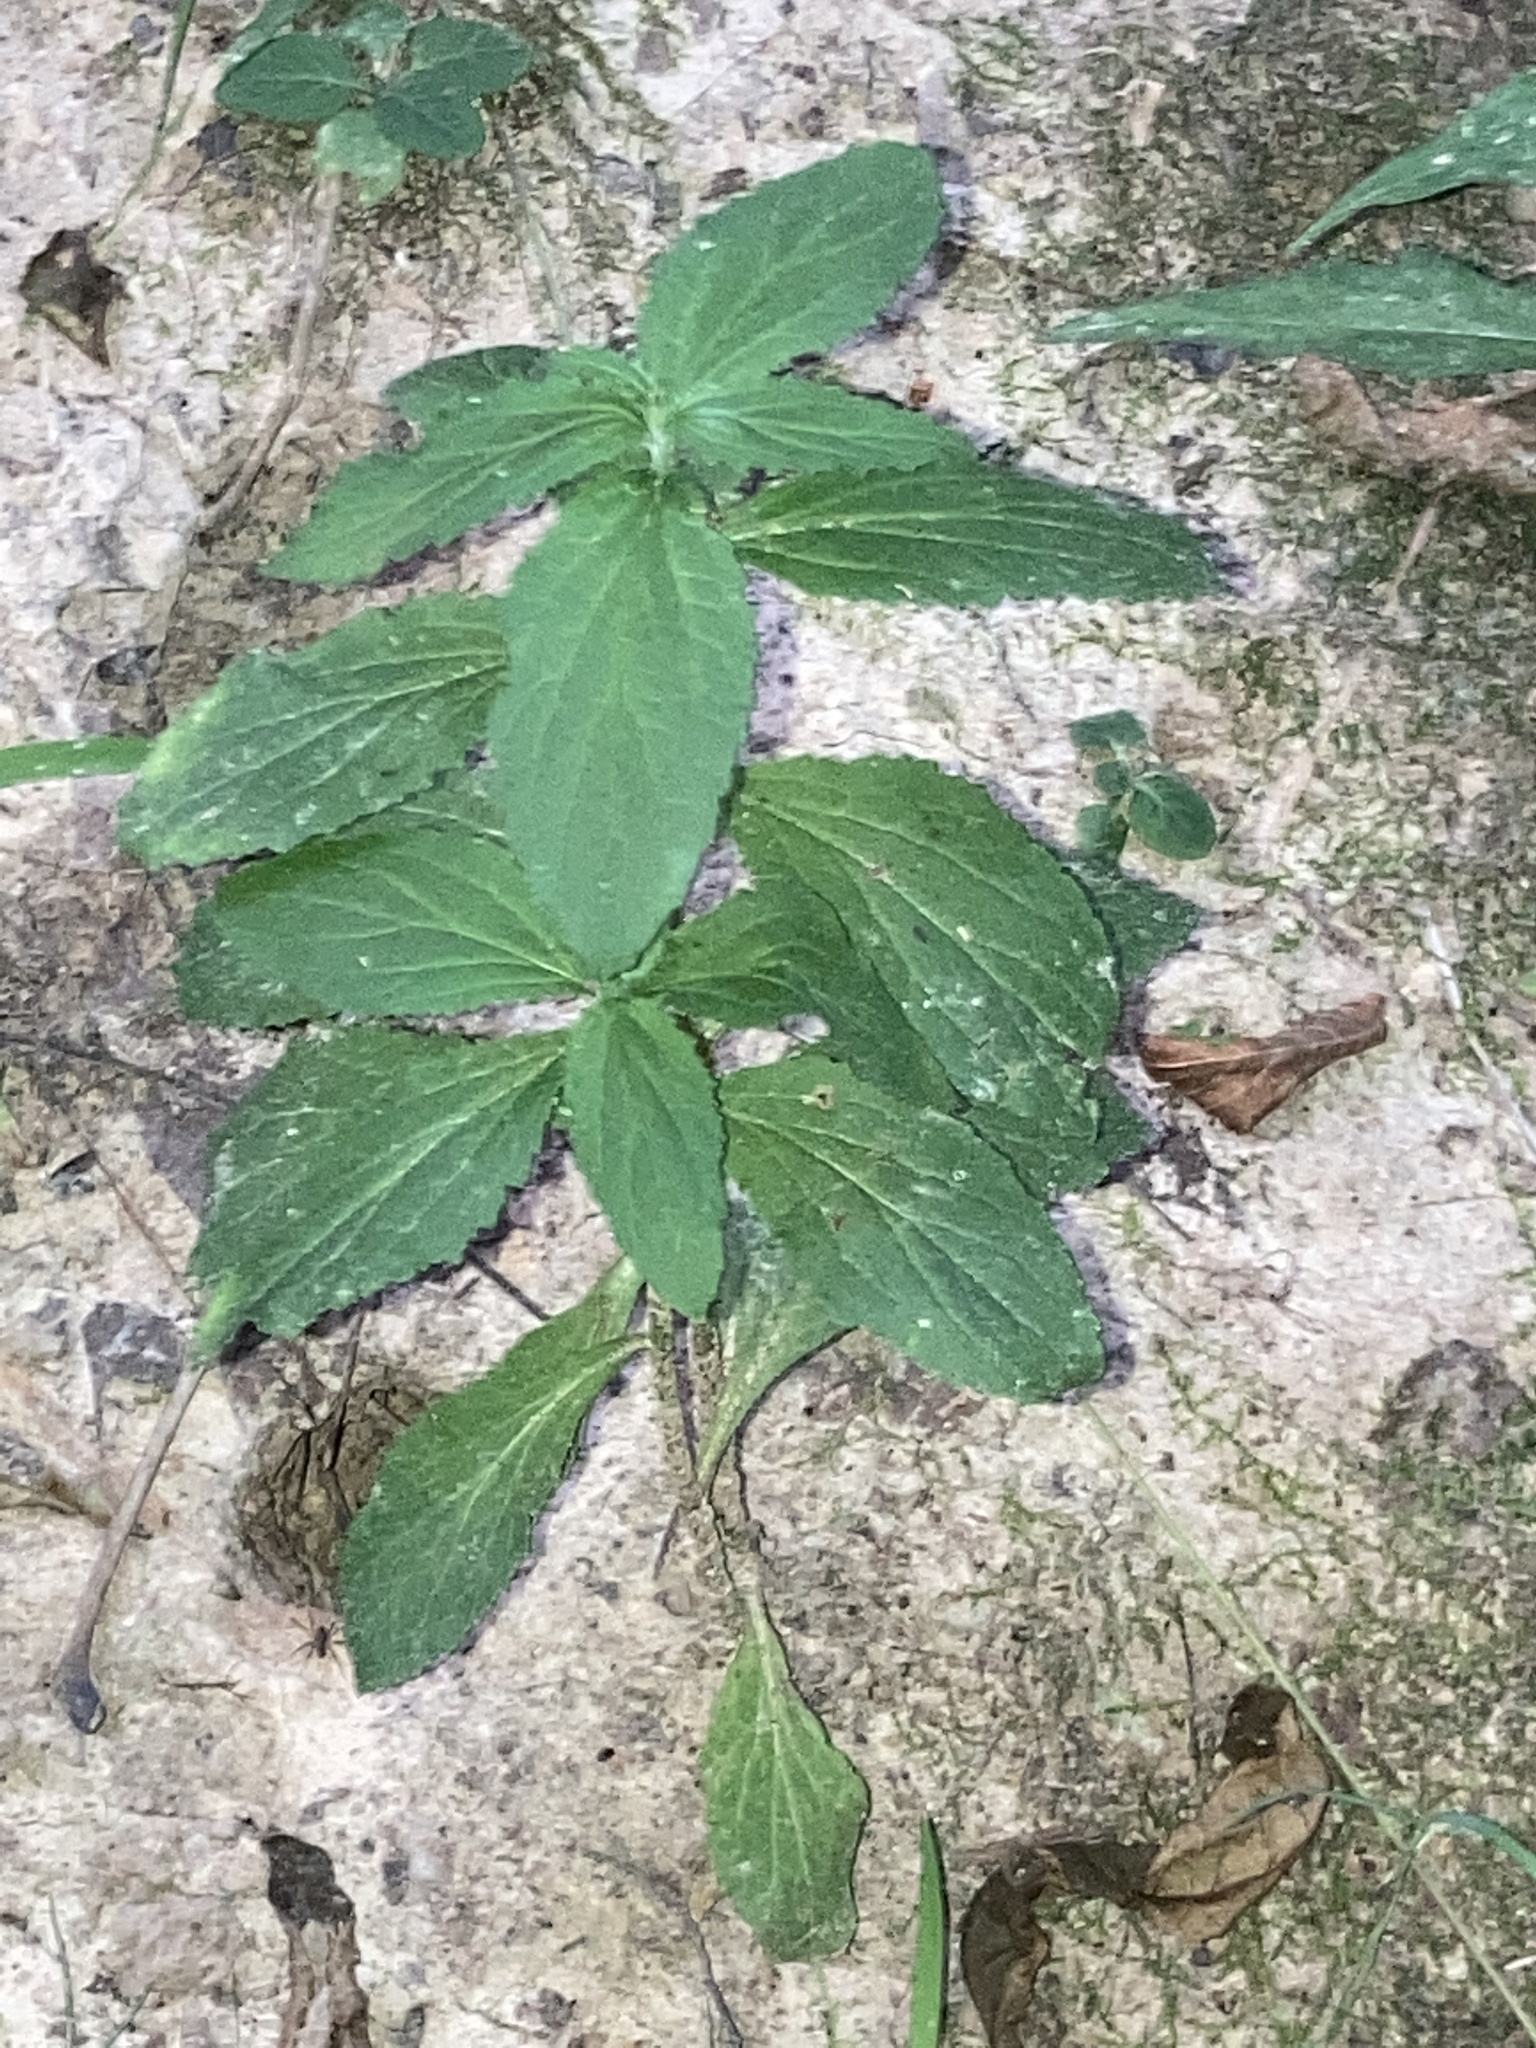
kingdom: Plantae
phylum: Tracheophyta
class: Magnoliopsida
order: Asterales
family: Campanulaceae
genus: Lobelia
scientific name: Lobelia inflata
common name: Indian tobacco
